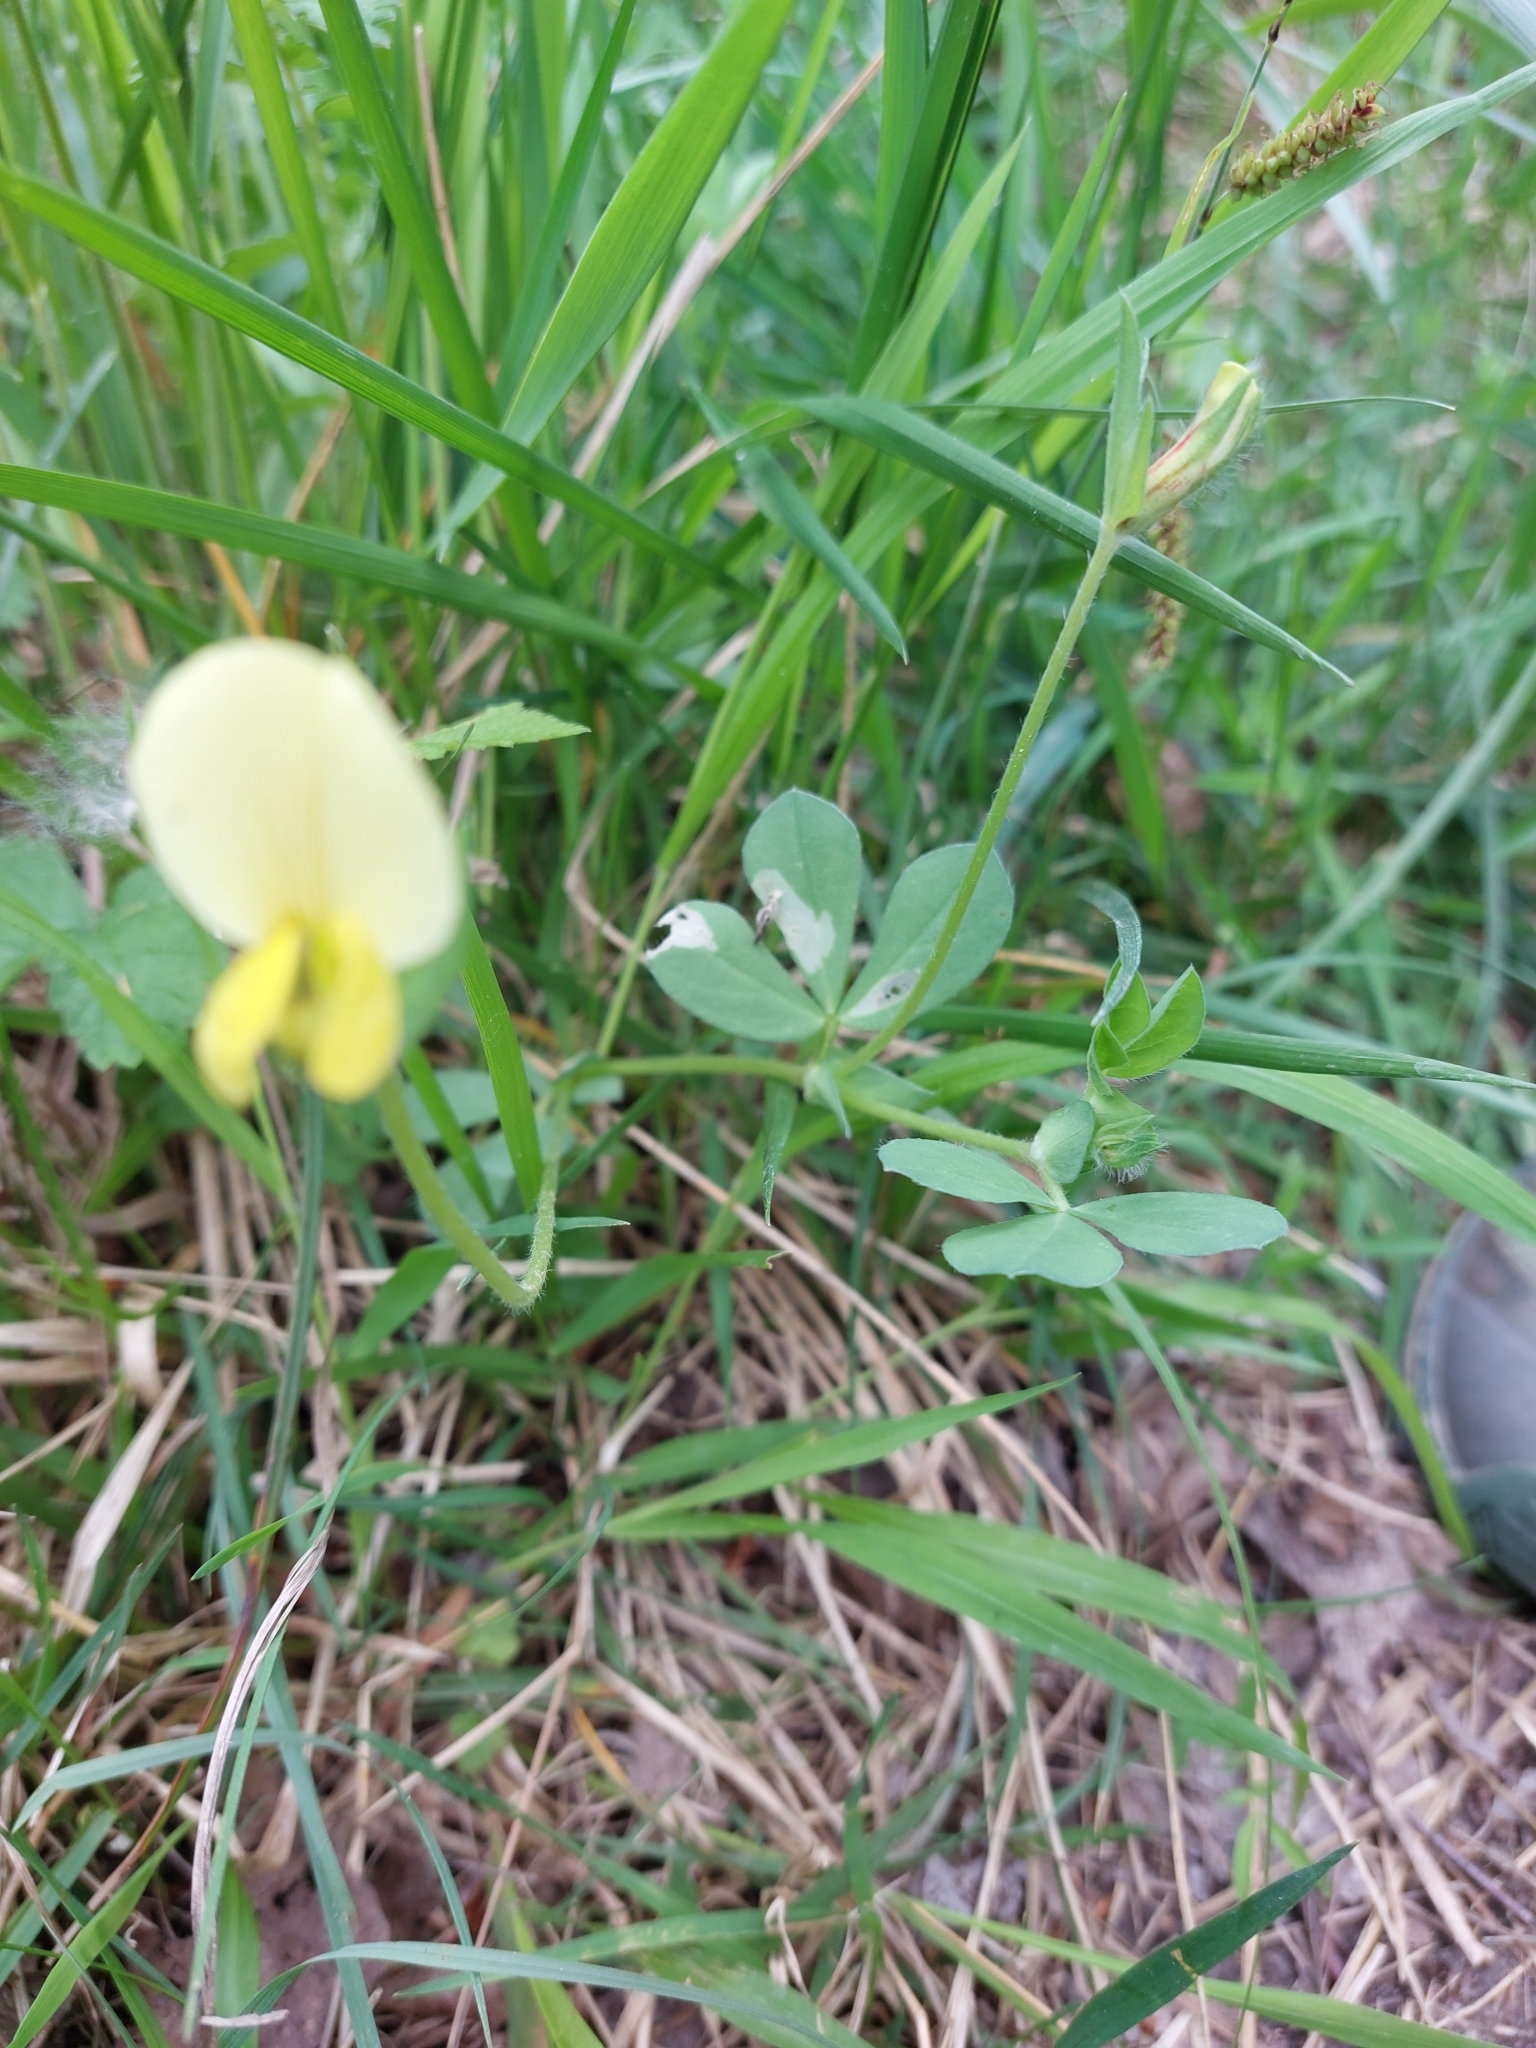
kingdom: Plantae
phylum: Tracheophyta
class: Magnoliopsida
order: Fabales
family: Fabaceae
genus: Lotus
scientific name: Lotus maritimus
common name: Dragon's-teeth
